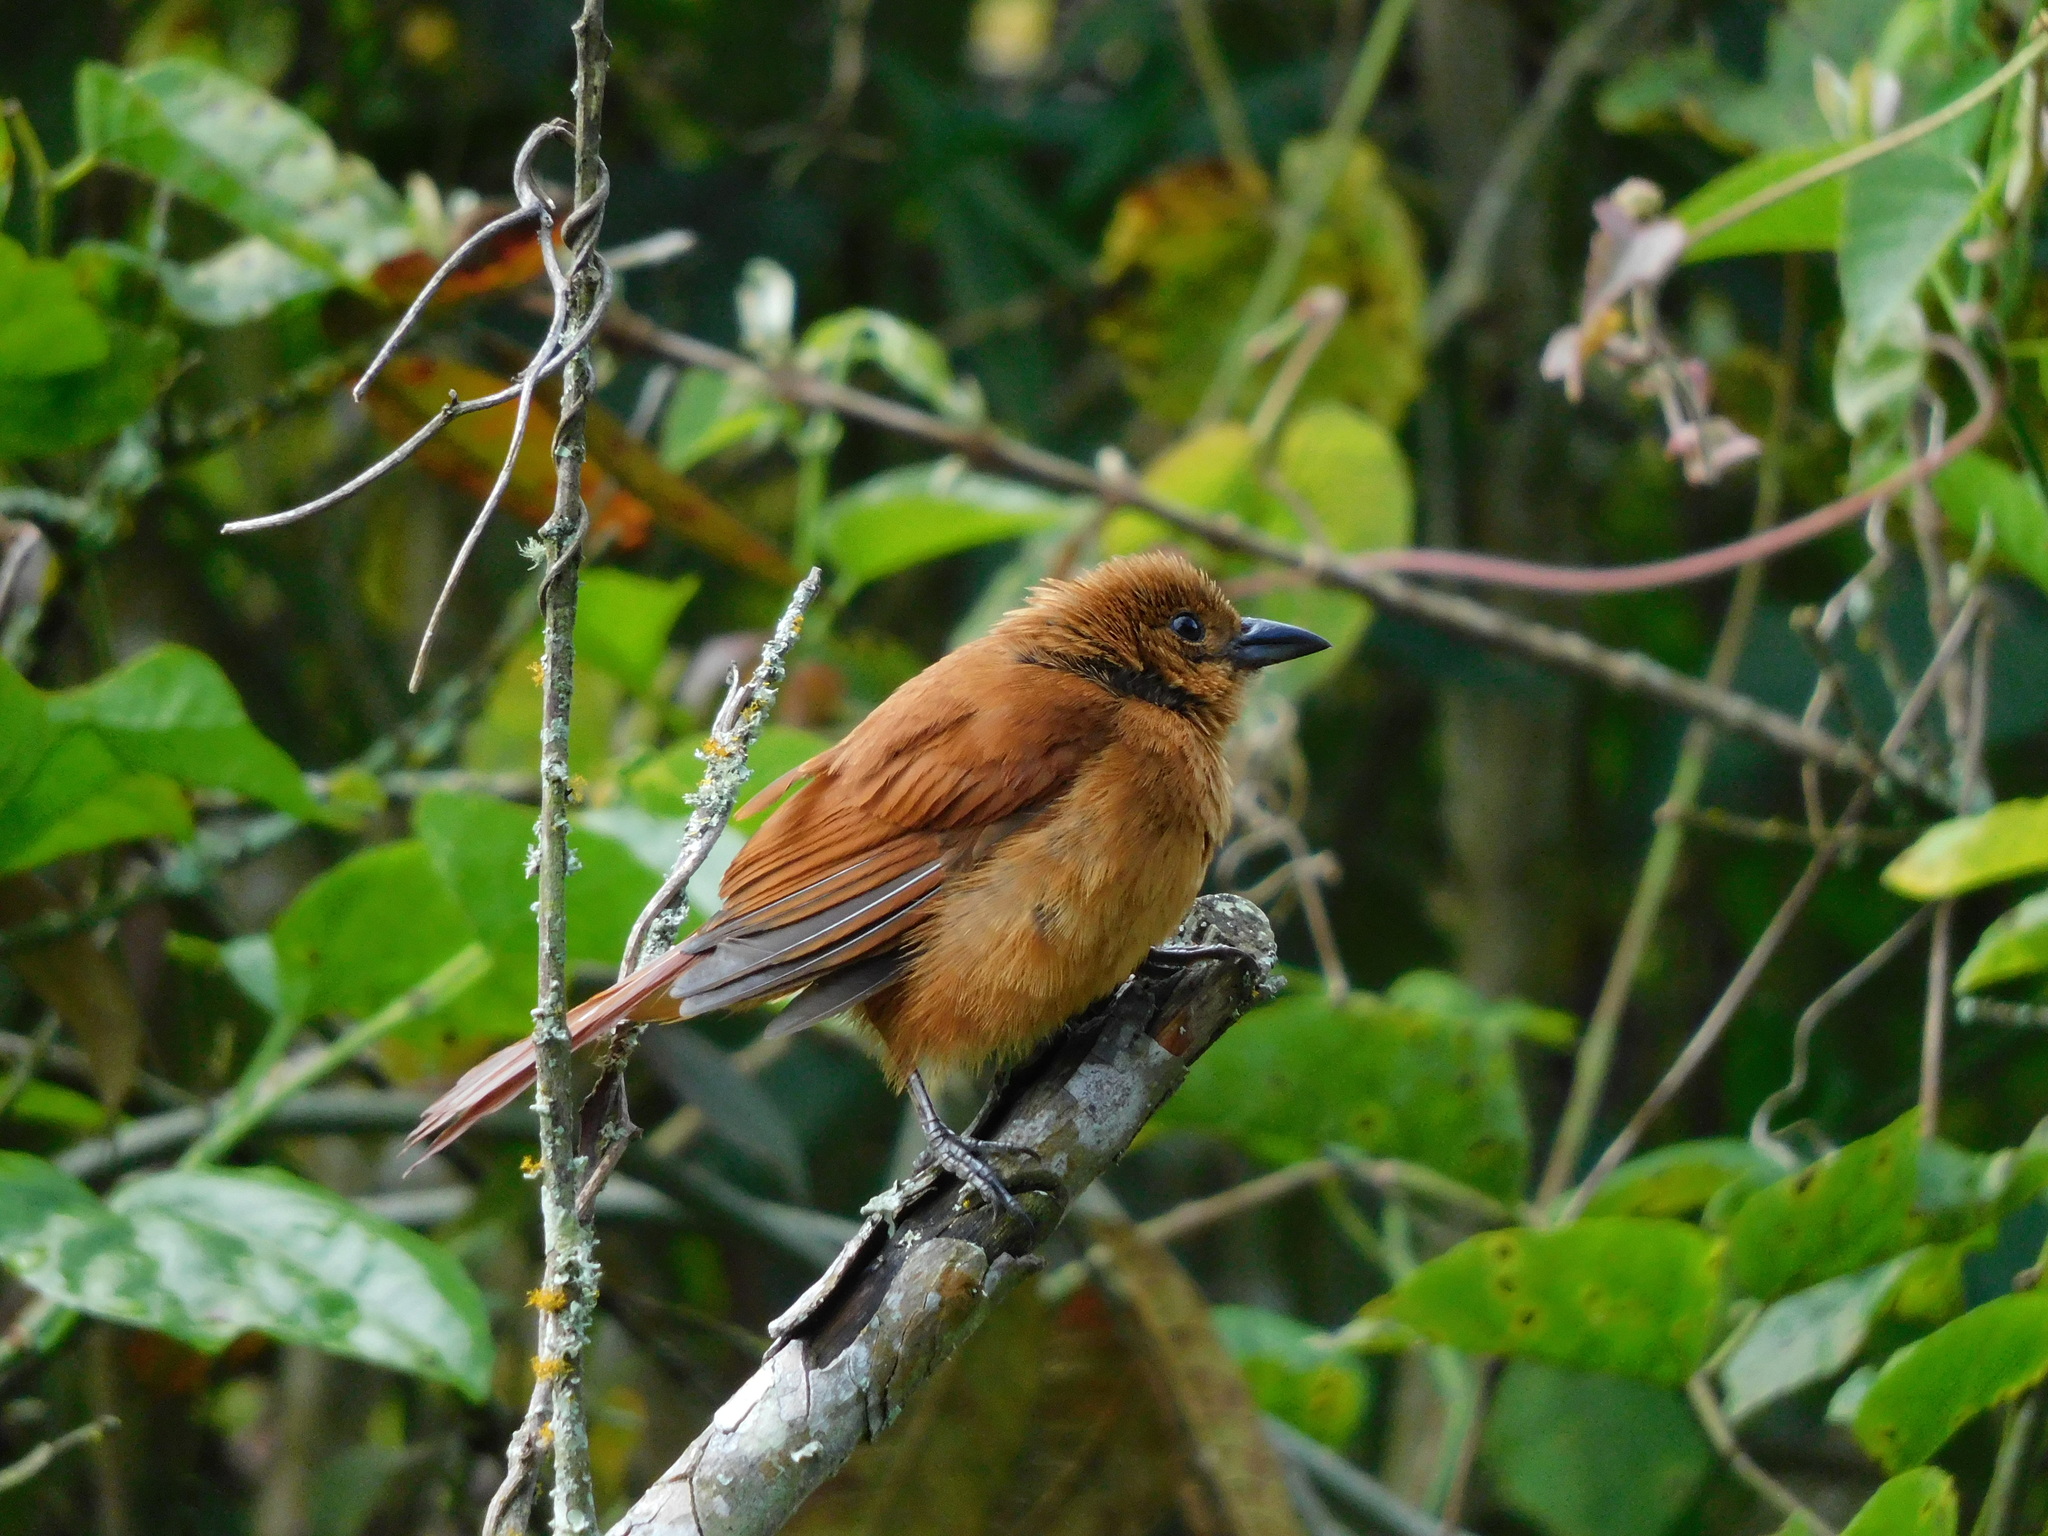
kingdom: Animalia
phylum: Chordata
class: Aves
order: Passeriformes
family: Thraupidae
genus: Tachyphonus
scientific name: Tachyphonus rufus
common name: White-lined tanager
